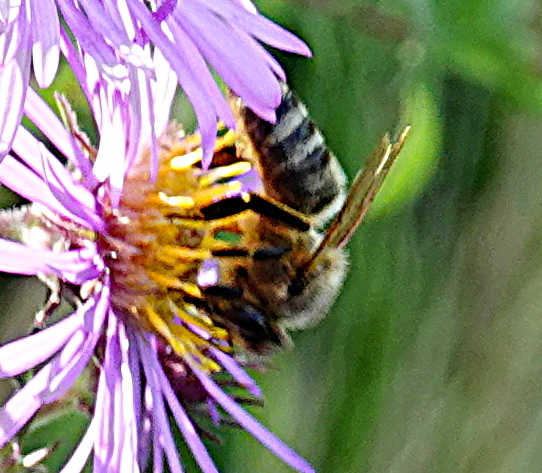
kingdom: Animalia
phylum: Arthropoda
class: Insecta
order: Hymenoptera
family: Apidae
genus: Apis
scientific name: Apis mellifera
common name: Honey bee
